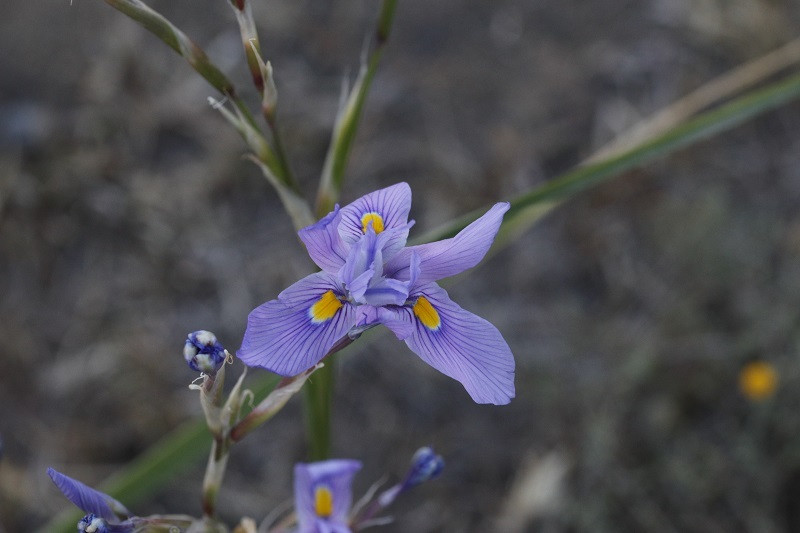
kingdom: Plantae
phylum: Tracheophyta
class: Liliopsida
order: Asparagales
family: Iridaceae
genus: Moraea
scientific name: Moraea polystachya
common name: Blue-tulip
